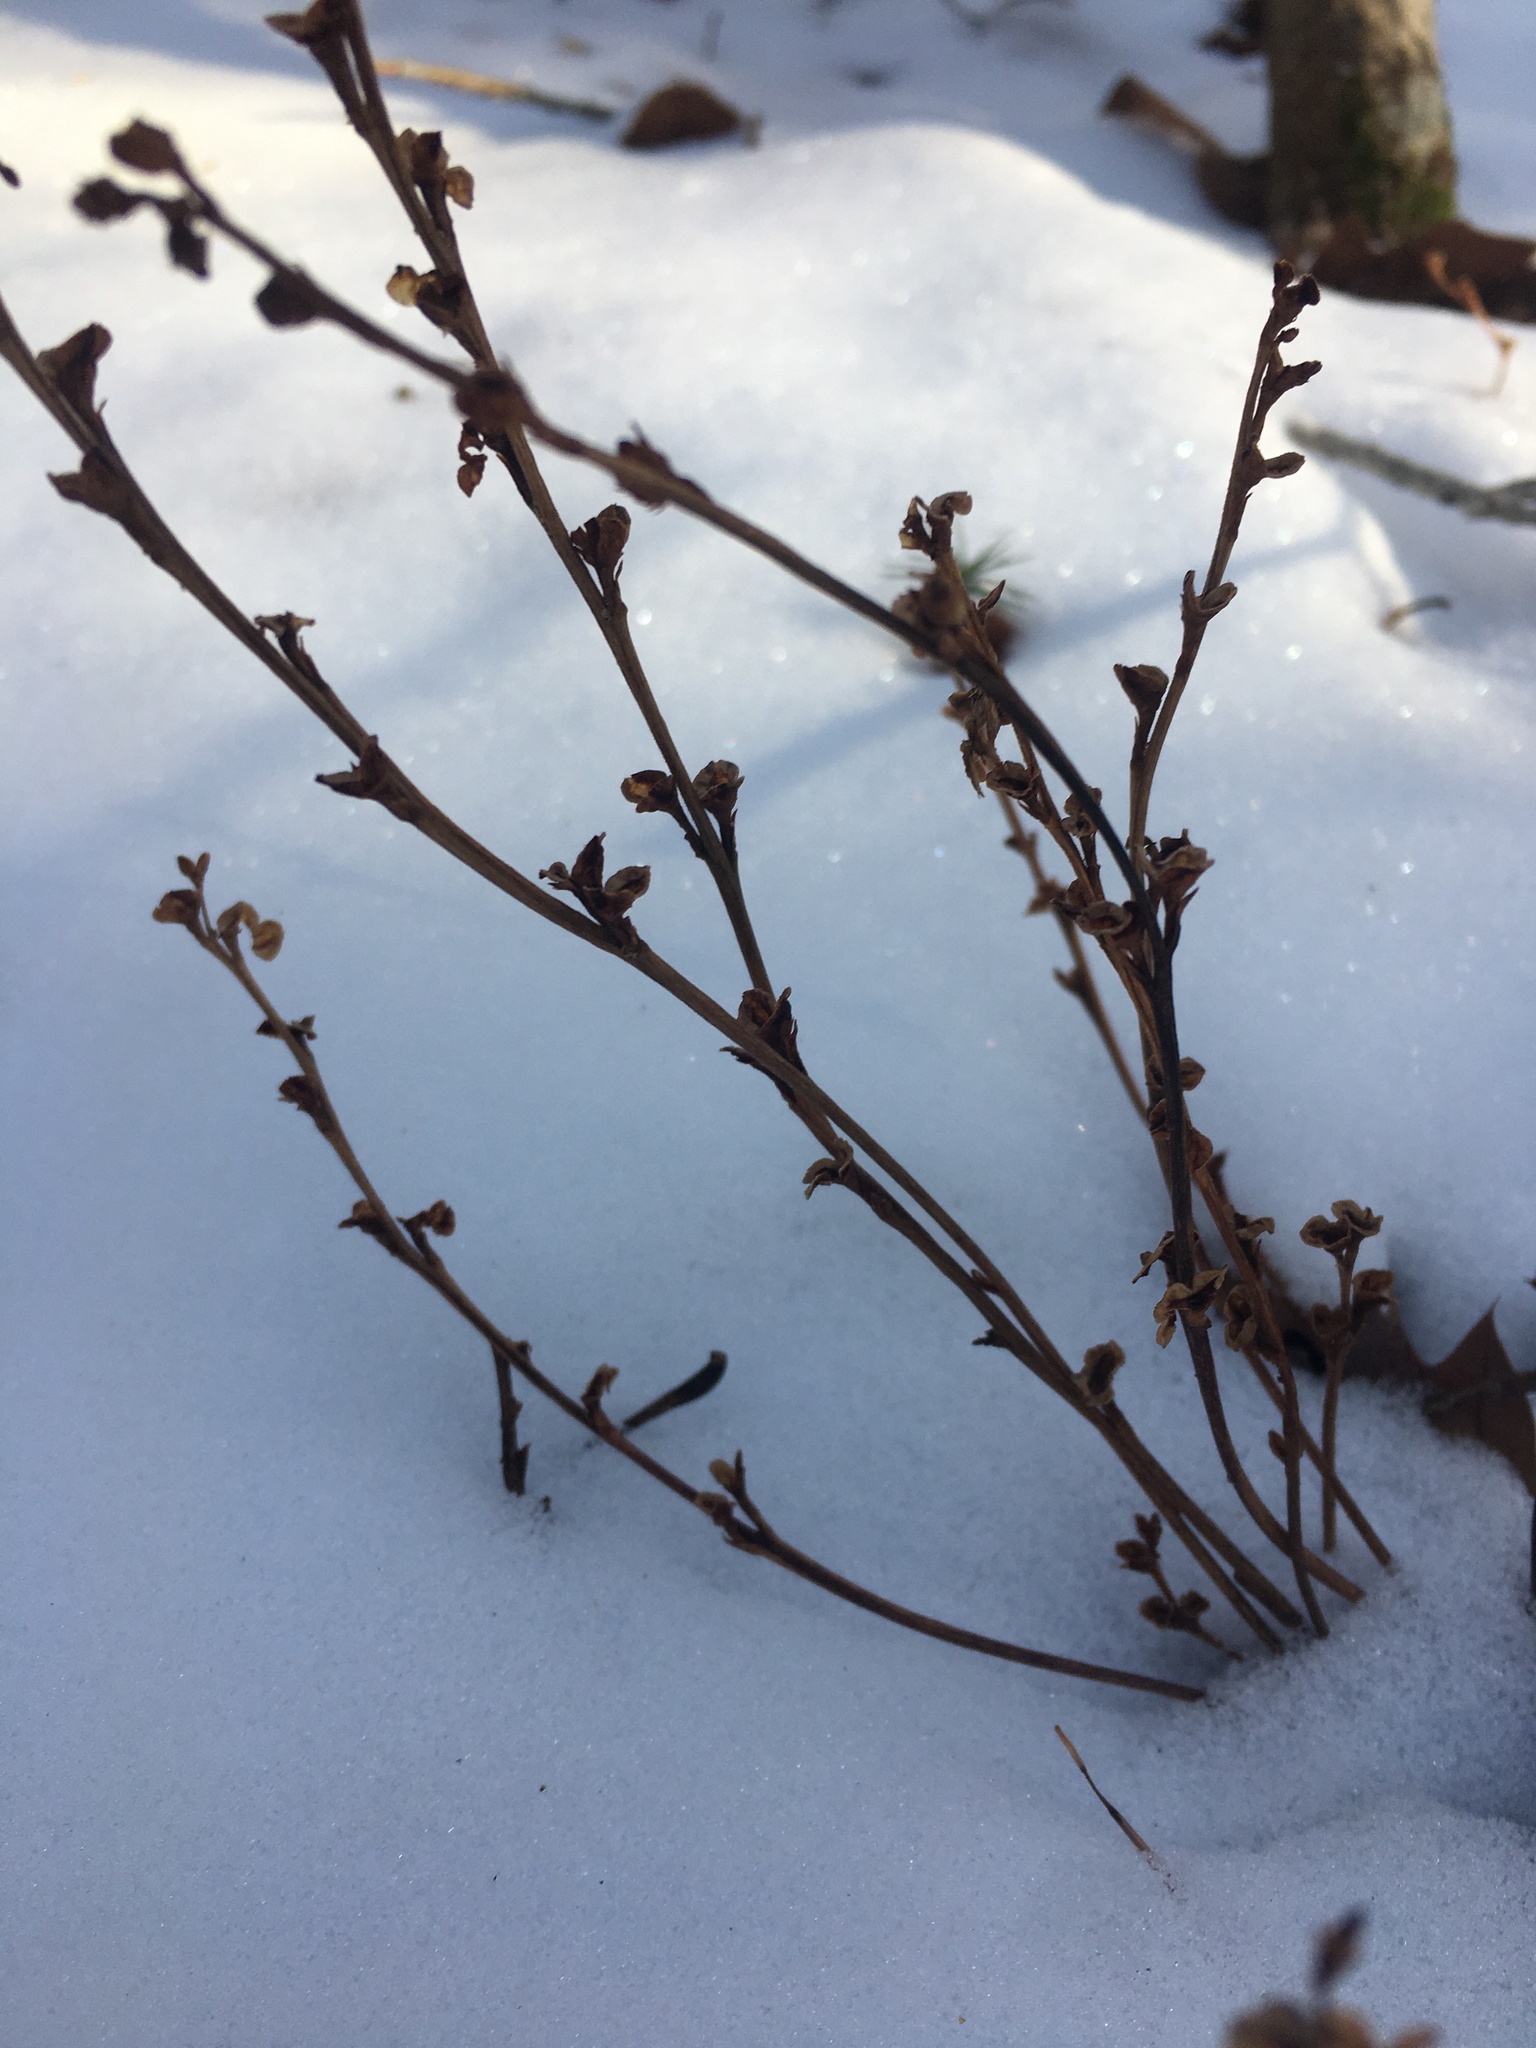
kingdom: Plantae
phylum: Tracheophyta
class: Magnoliopsida
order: Lamiales
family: Orobanchaceae
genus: Epifagus
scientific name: Epifagus virginiana
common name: Beechdrops
